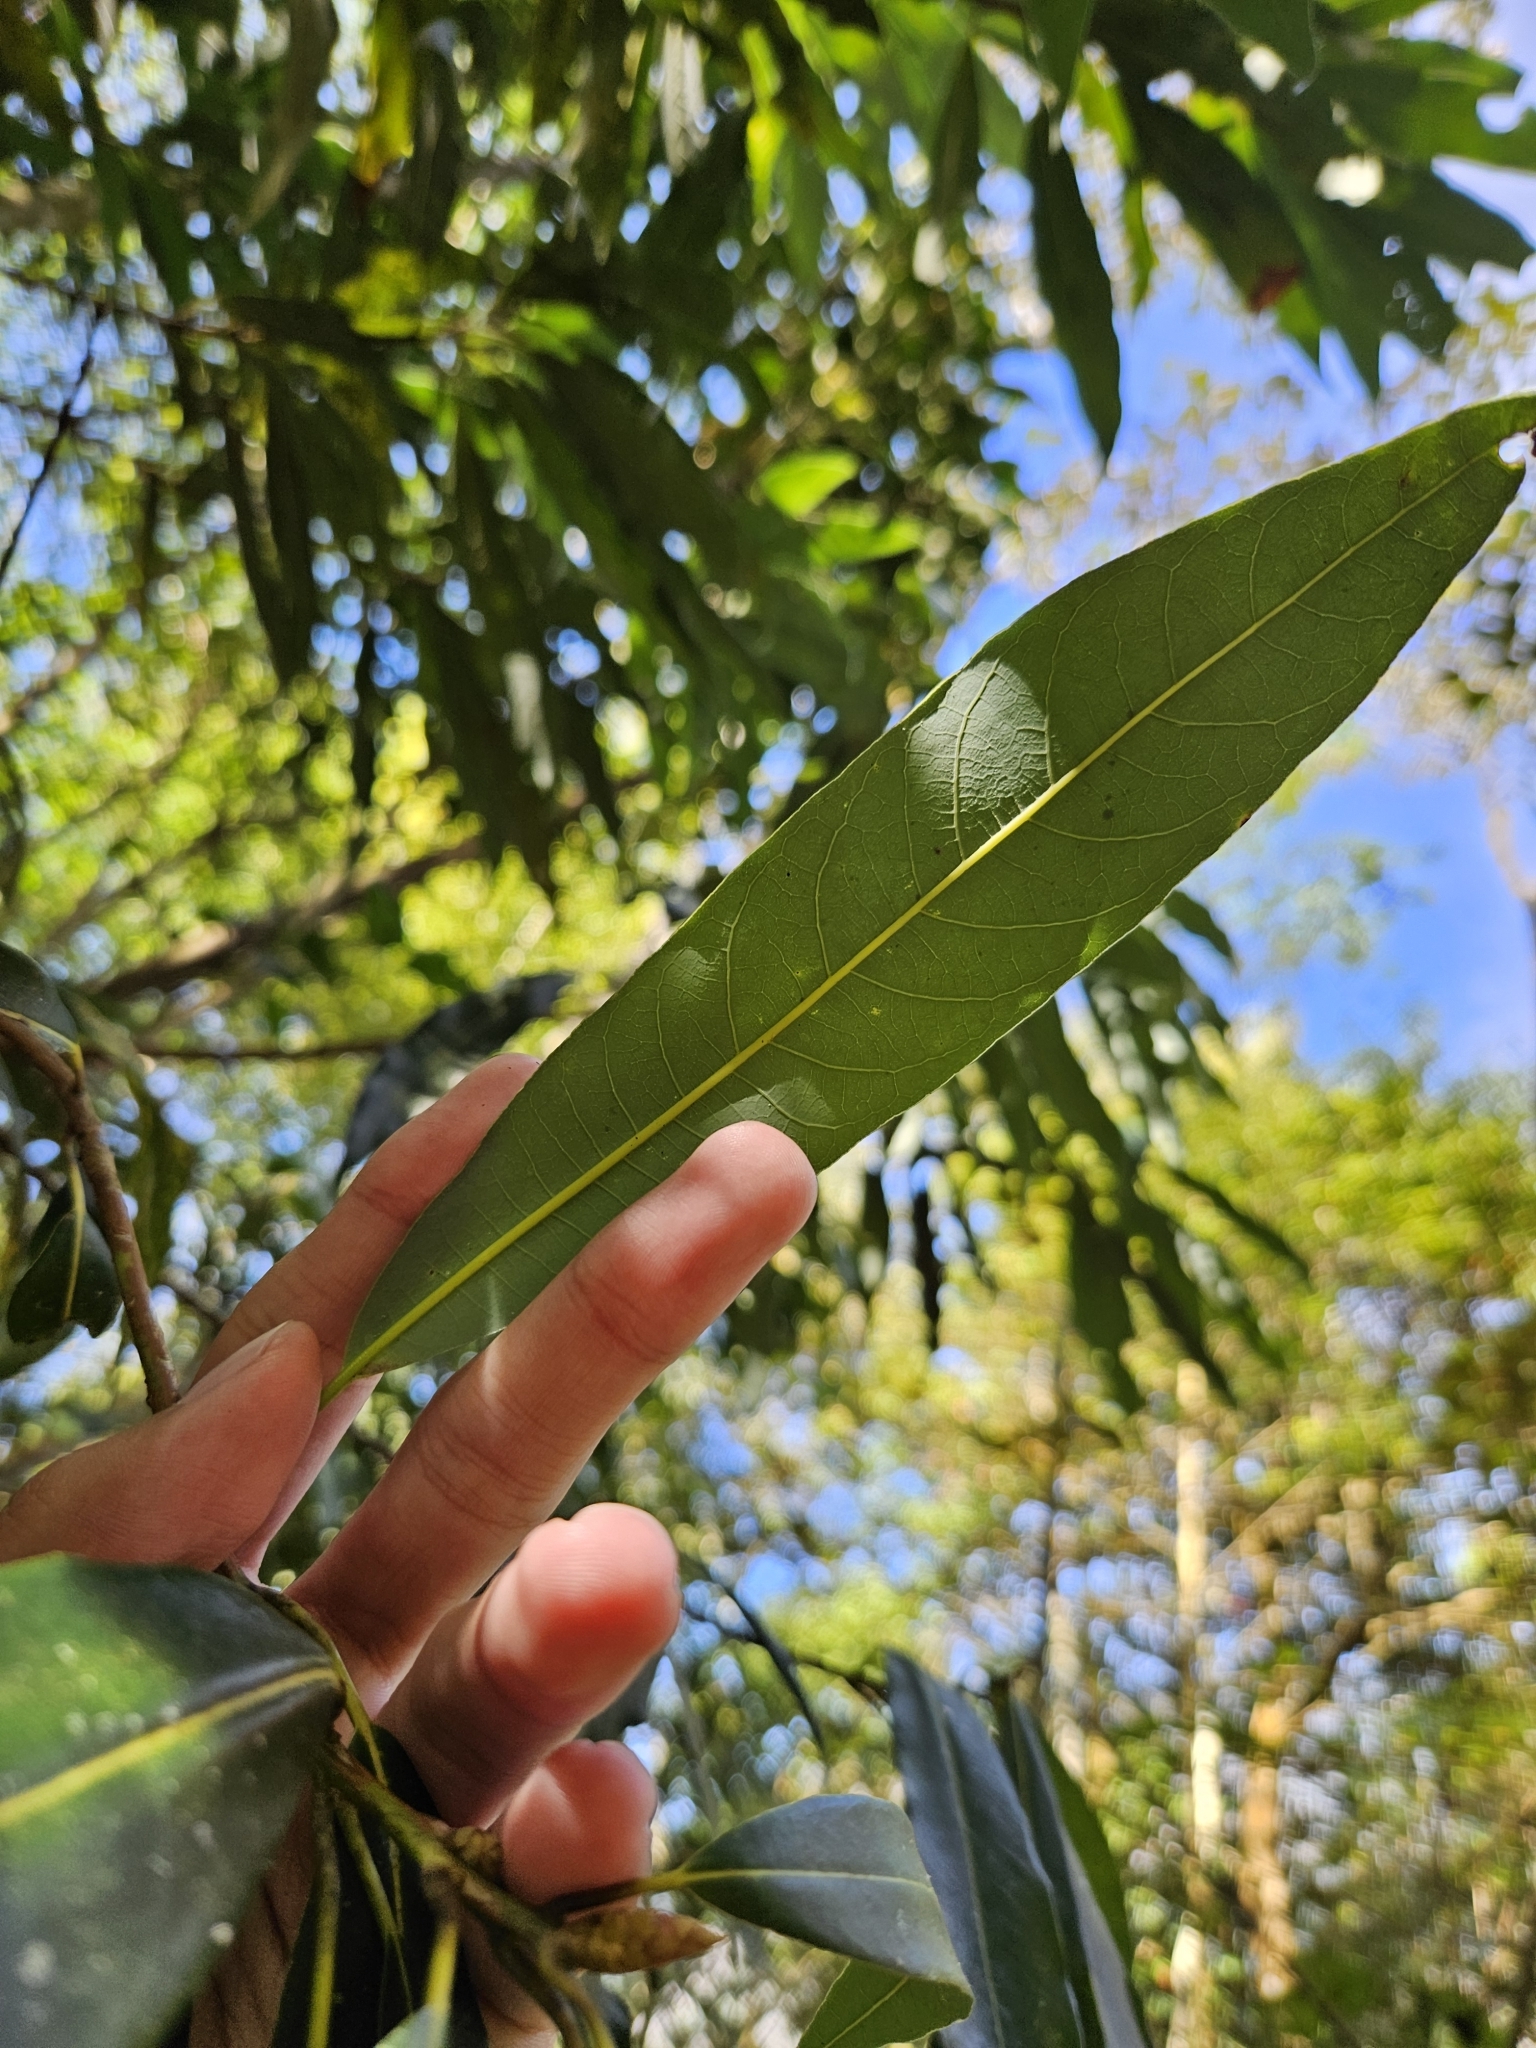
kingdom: Plantae
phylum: Tracheophyta
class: Magnoliopsida
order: Laurales
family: Lauraceae
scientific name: Lauraceae
